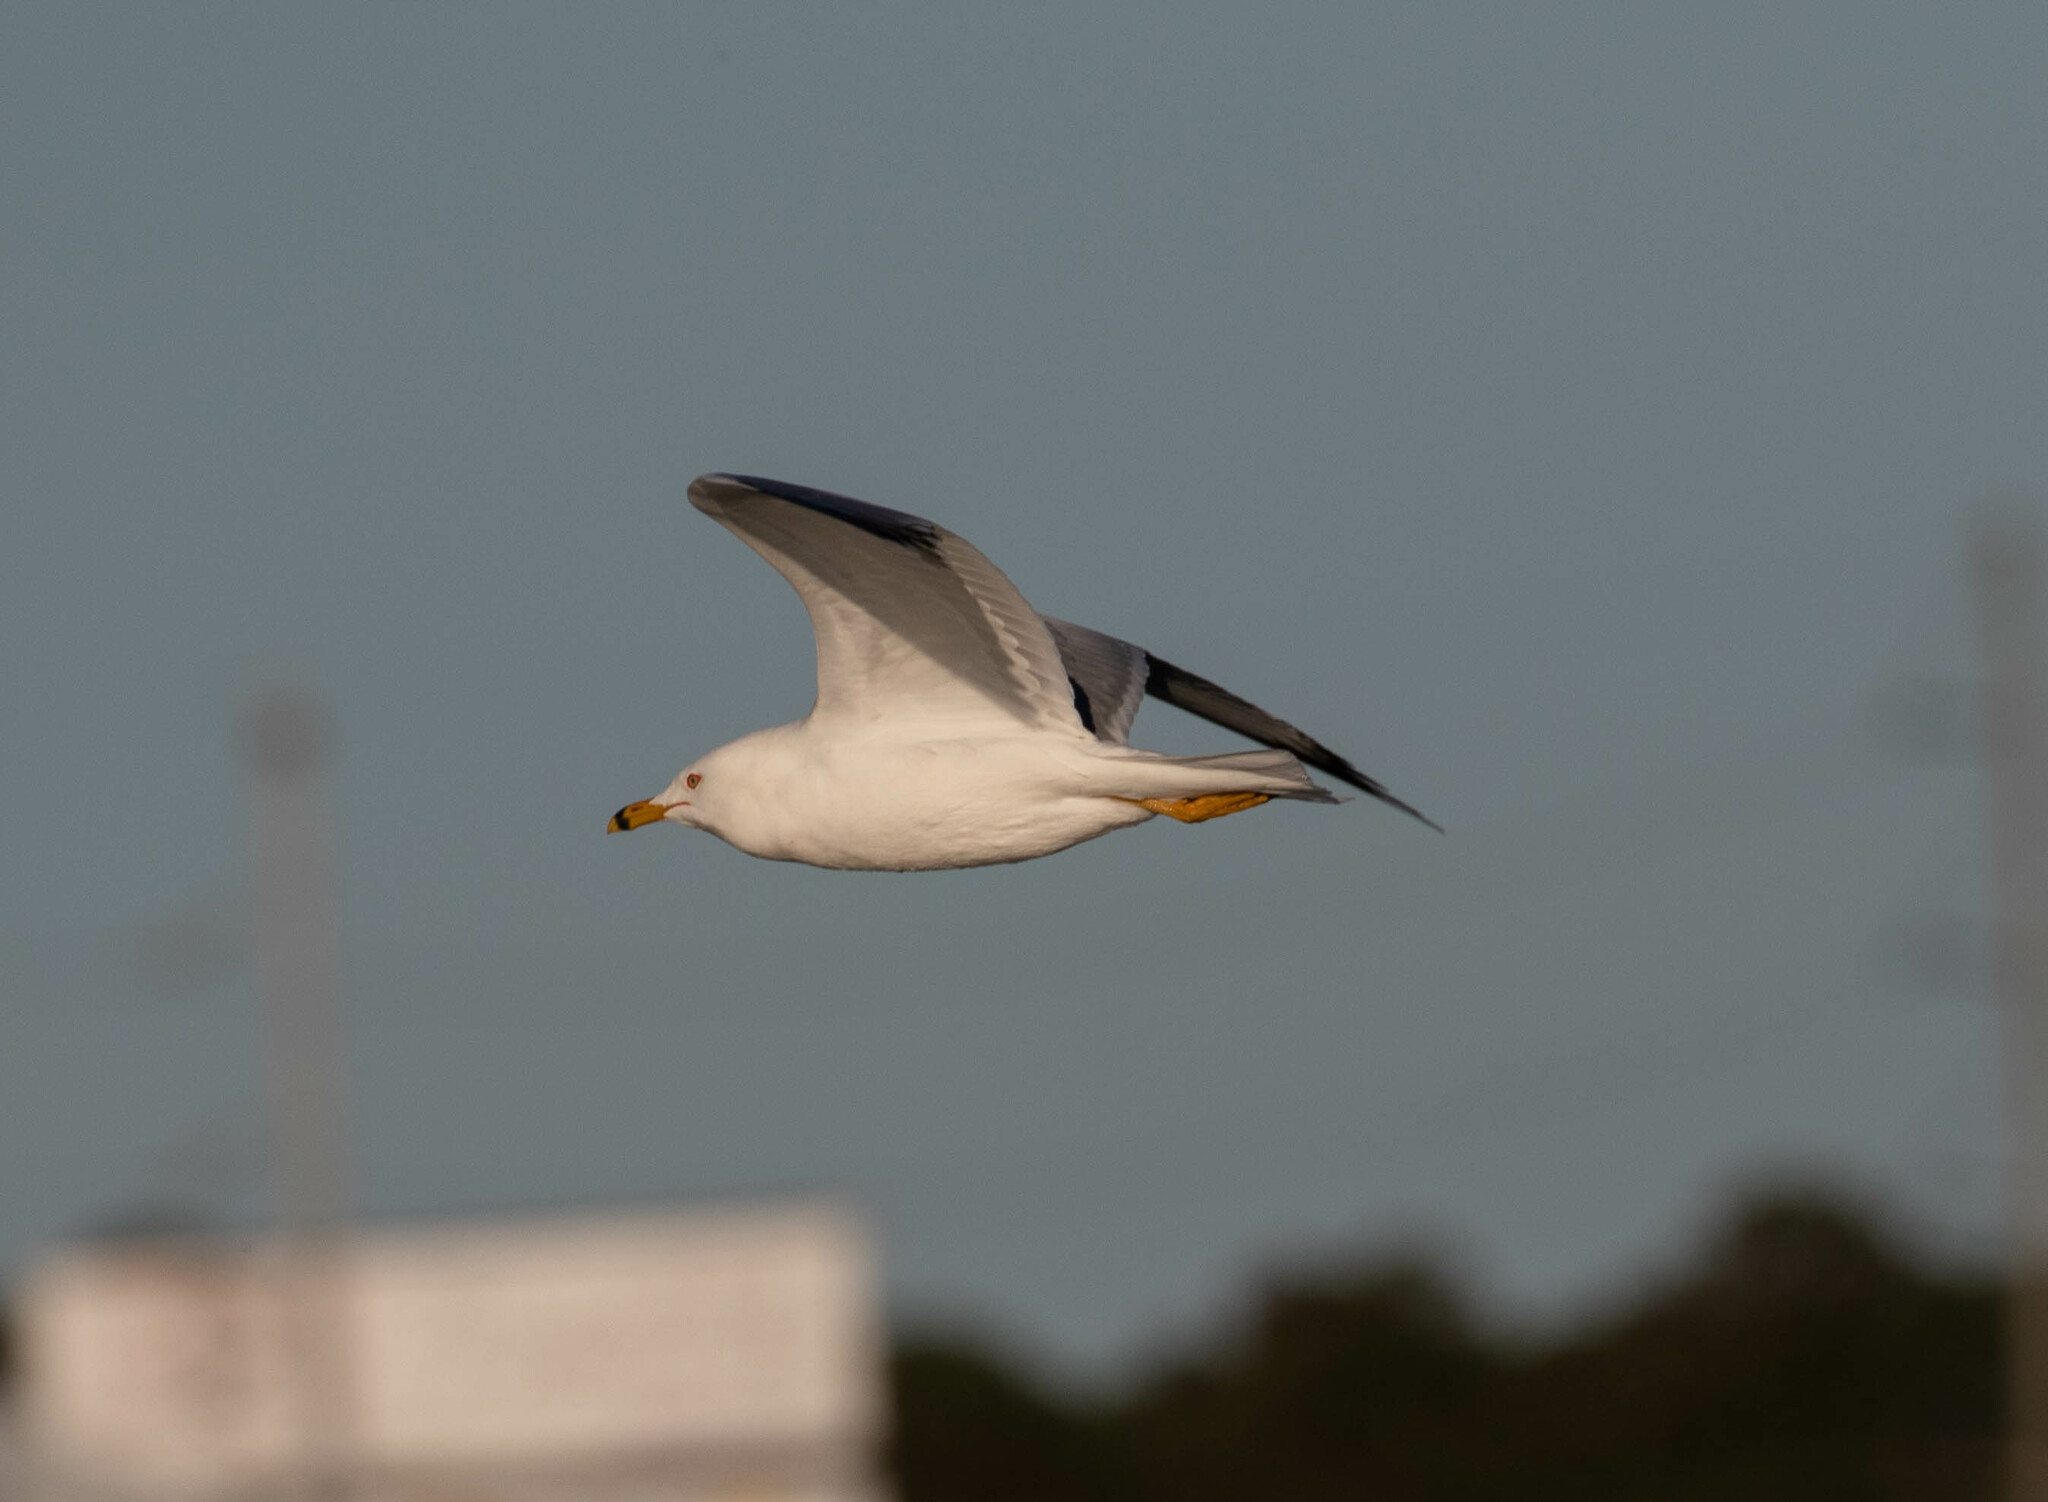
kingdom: Animalia
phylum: Chordata
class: Aves
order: Charadriiformes
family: Laridae
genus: Larus
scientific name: Larus delawarensis
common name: Ring-billed gull
